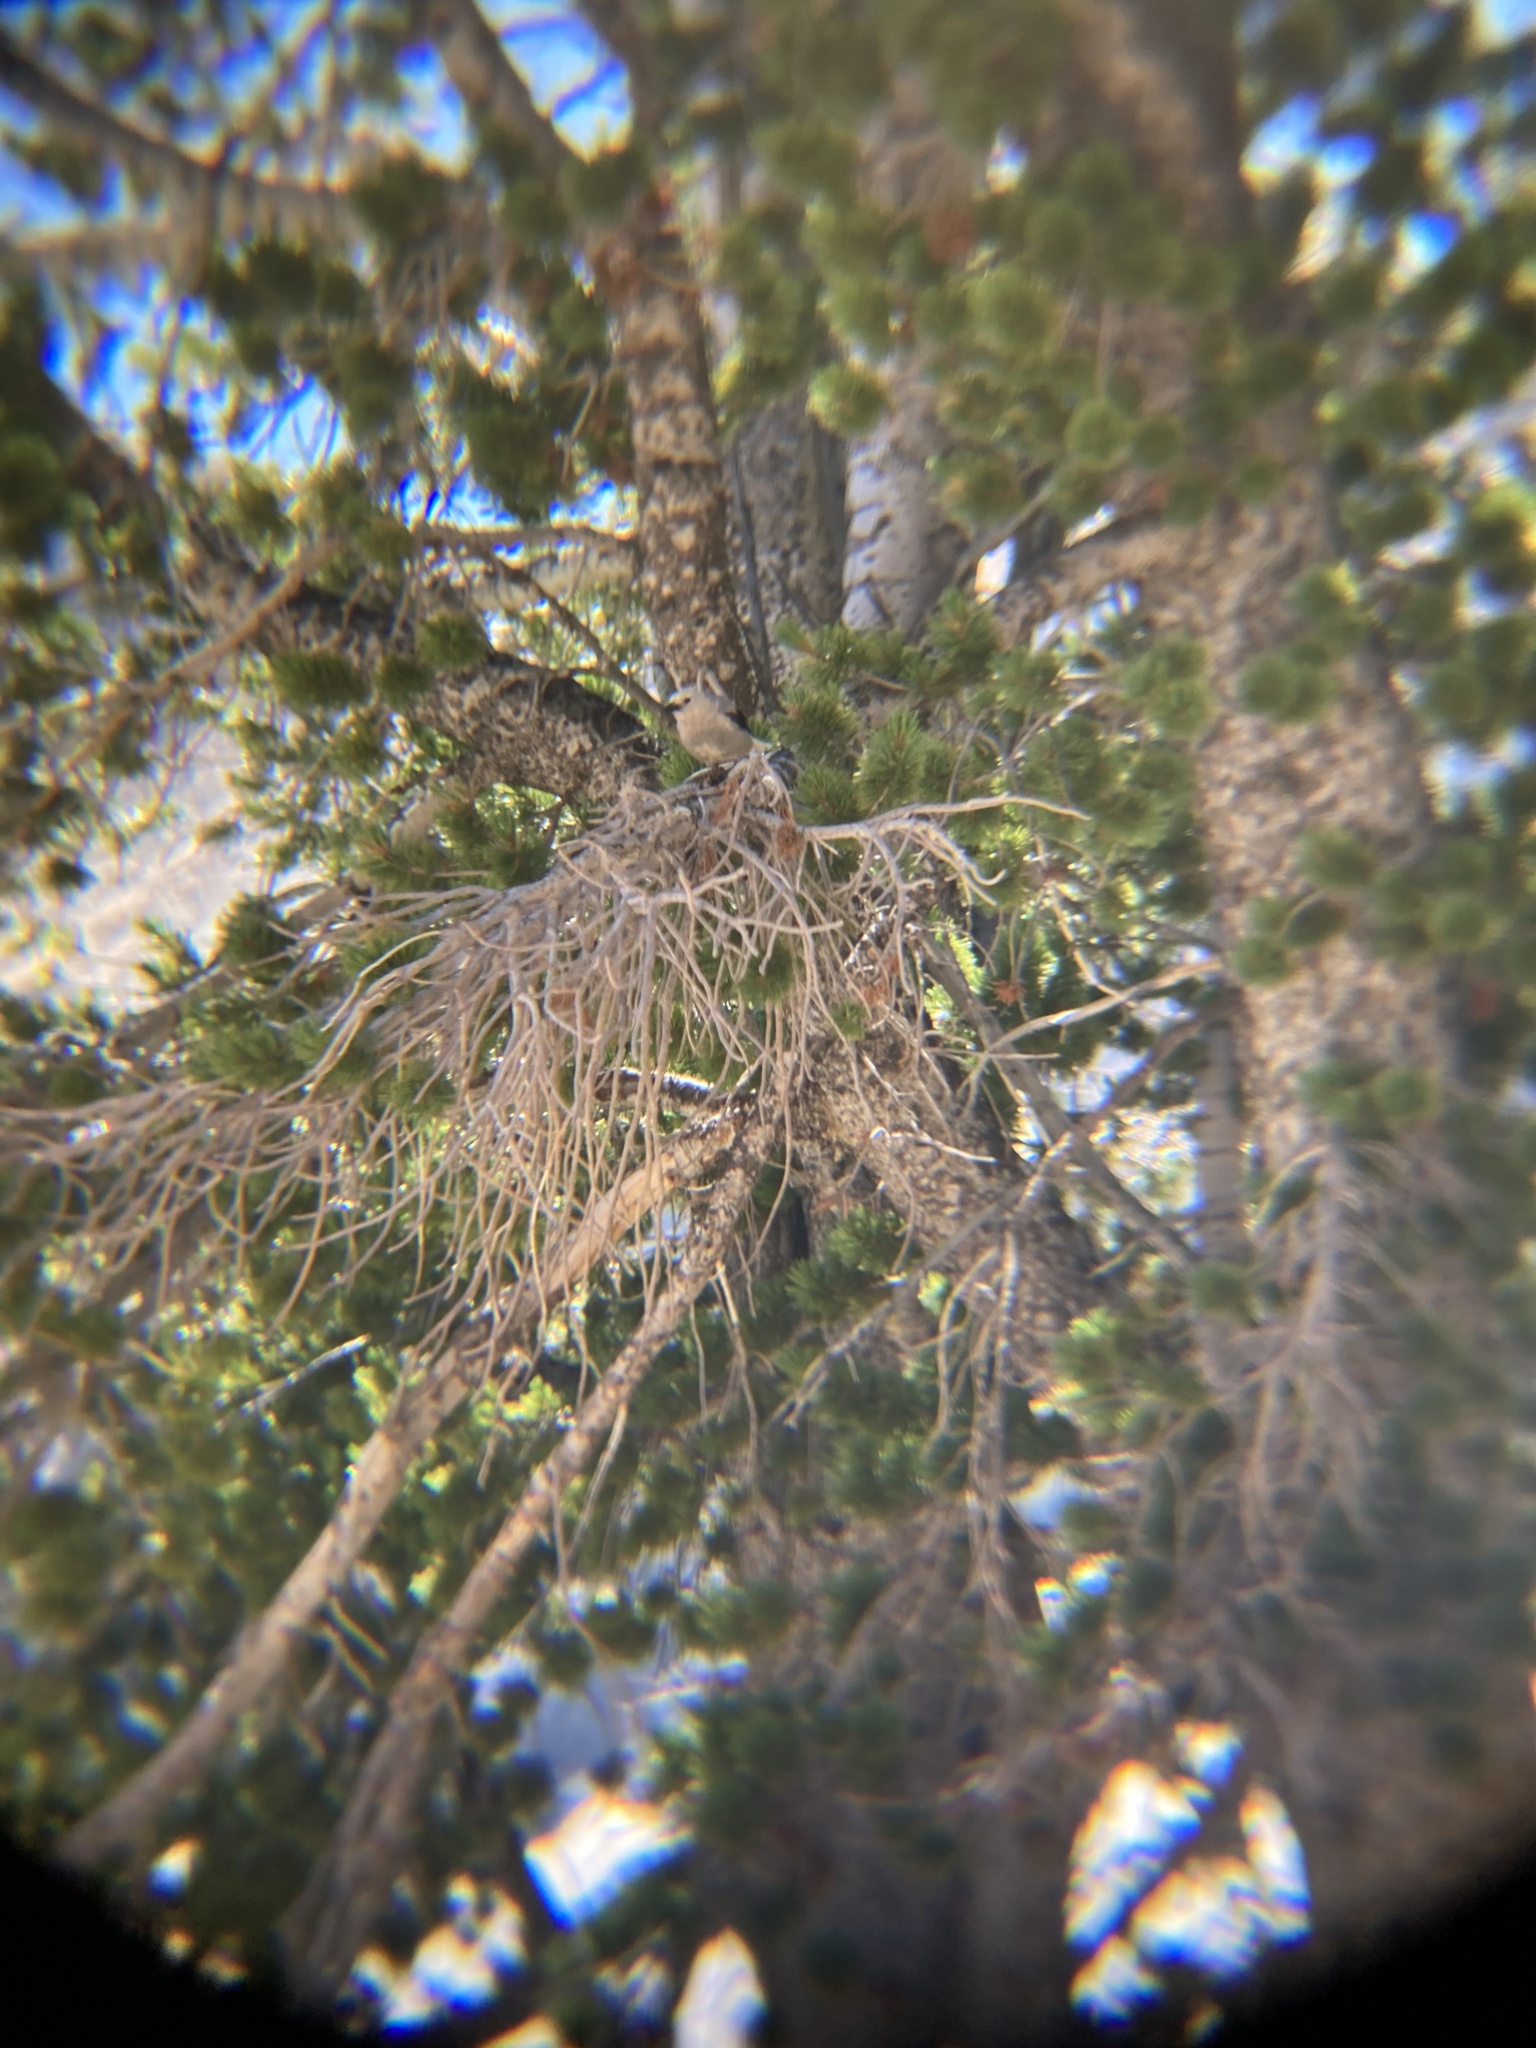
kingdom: Animalia
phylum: Chordata
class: Aves
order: Passeriformes
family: Corvidae
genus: Nucifraga
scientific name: Nucifraga columbiana
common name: Clark's nutcracker
